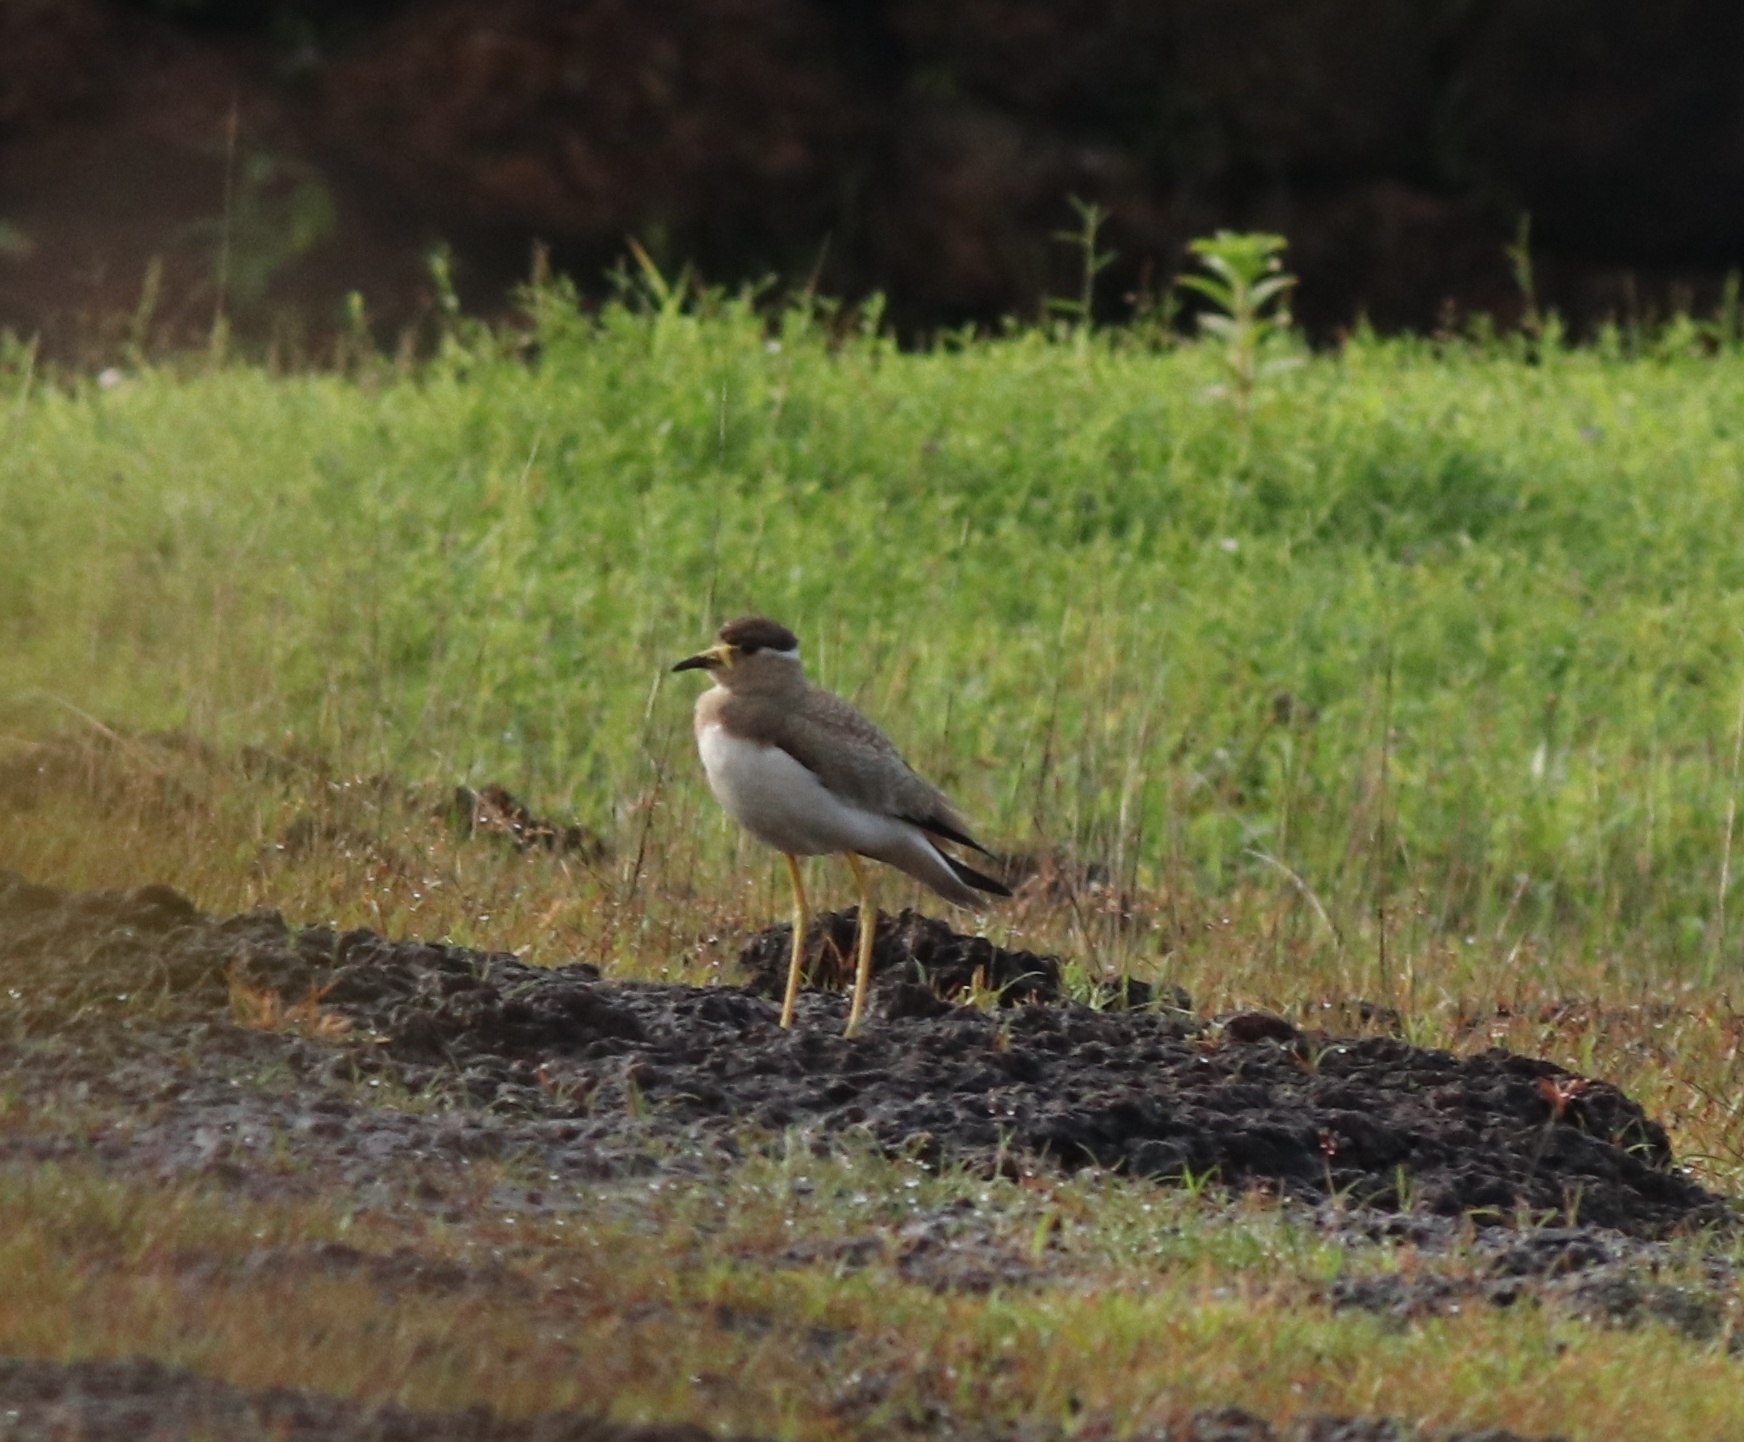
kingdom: Animalia
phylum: Chordata
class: Aves
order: Charadriiformes
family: Charadriidae
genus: Vanellus
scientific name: Vanellus malabaricus
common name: Yellow-wattled lapwing
